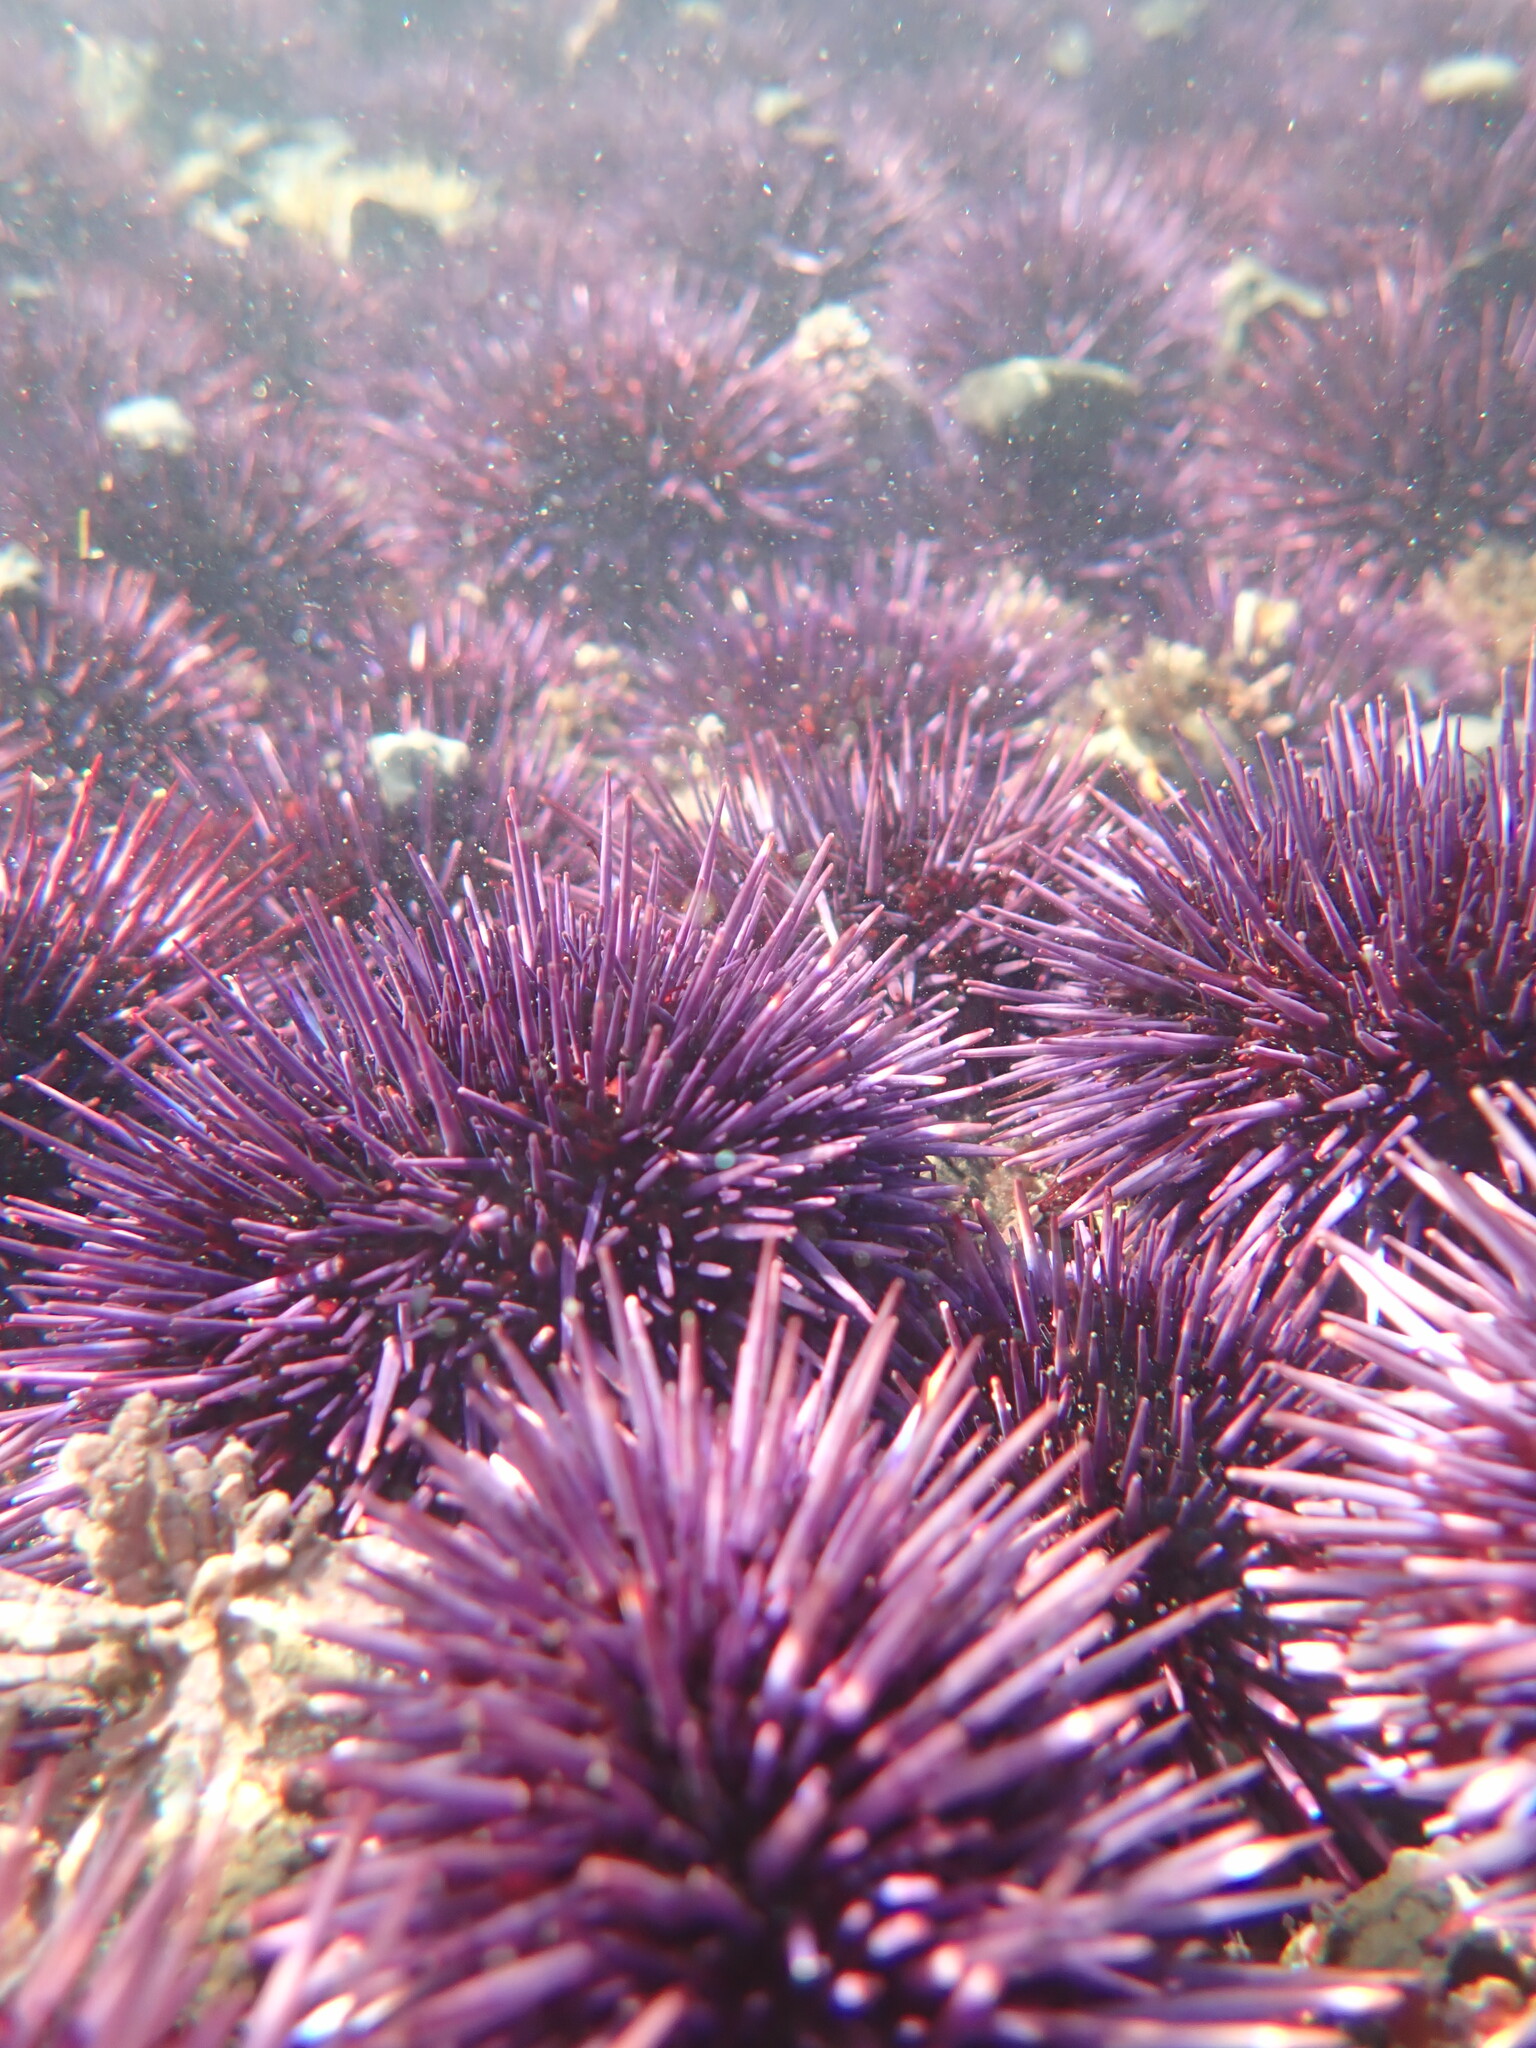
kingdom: Animalia
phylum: Echinodermata
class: Echinoidea
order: Camarodonta
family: Strongylocentrotidae
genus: Strongylocentrotus
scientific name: Strongylocentrotus purpuratus
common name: Purple sea urchin
